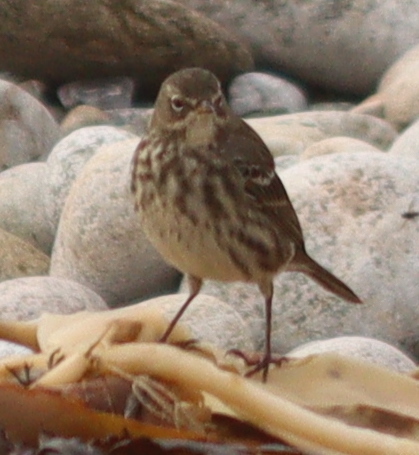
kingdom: Animalia
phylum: Chordata
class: Aves
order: Passeriformes
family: Motacillidae
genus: Anthus
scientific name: Anthus petrosus
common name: Eurasian rock pipit
